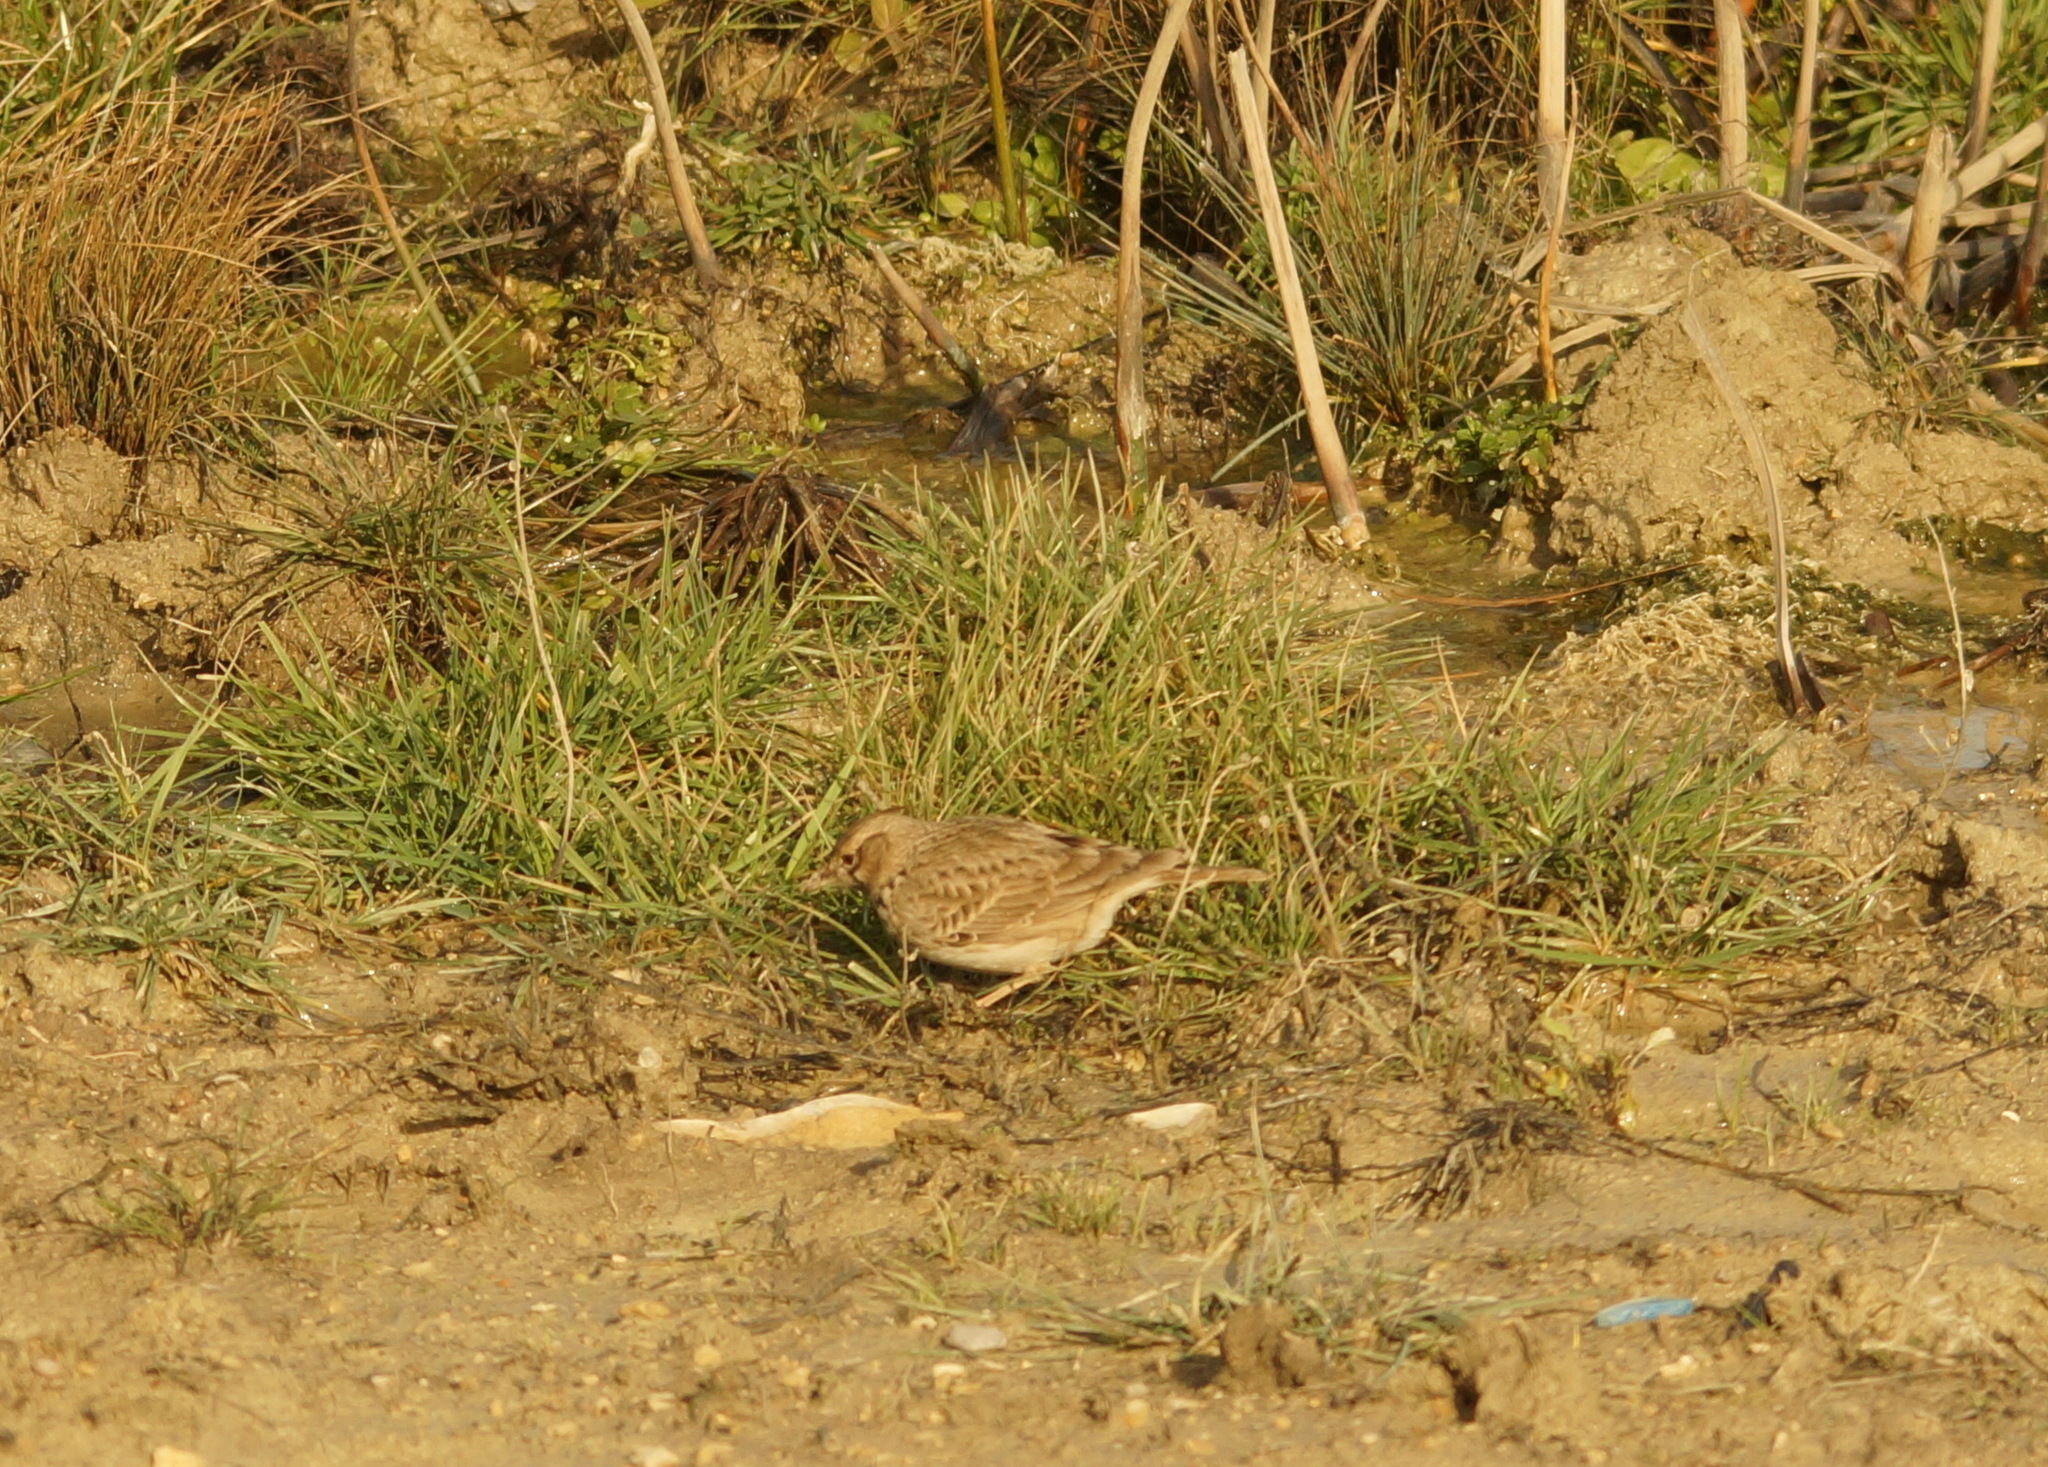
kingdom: Animalia
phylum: Chordata
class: Aves
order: Passeriformes
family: Alaudidae
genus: Galerida
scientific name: Galerida cristata
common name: Crested lark
